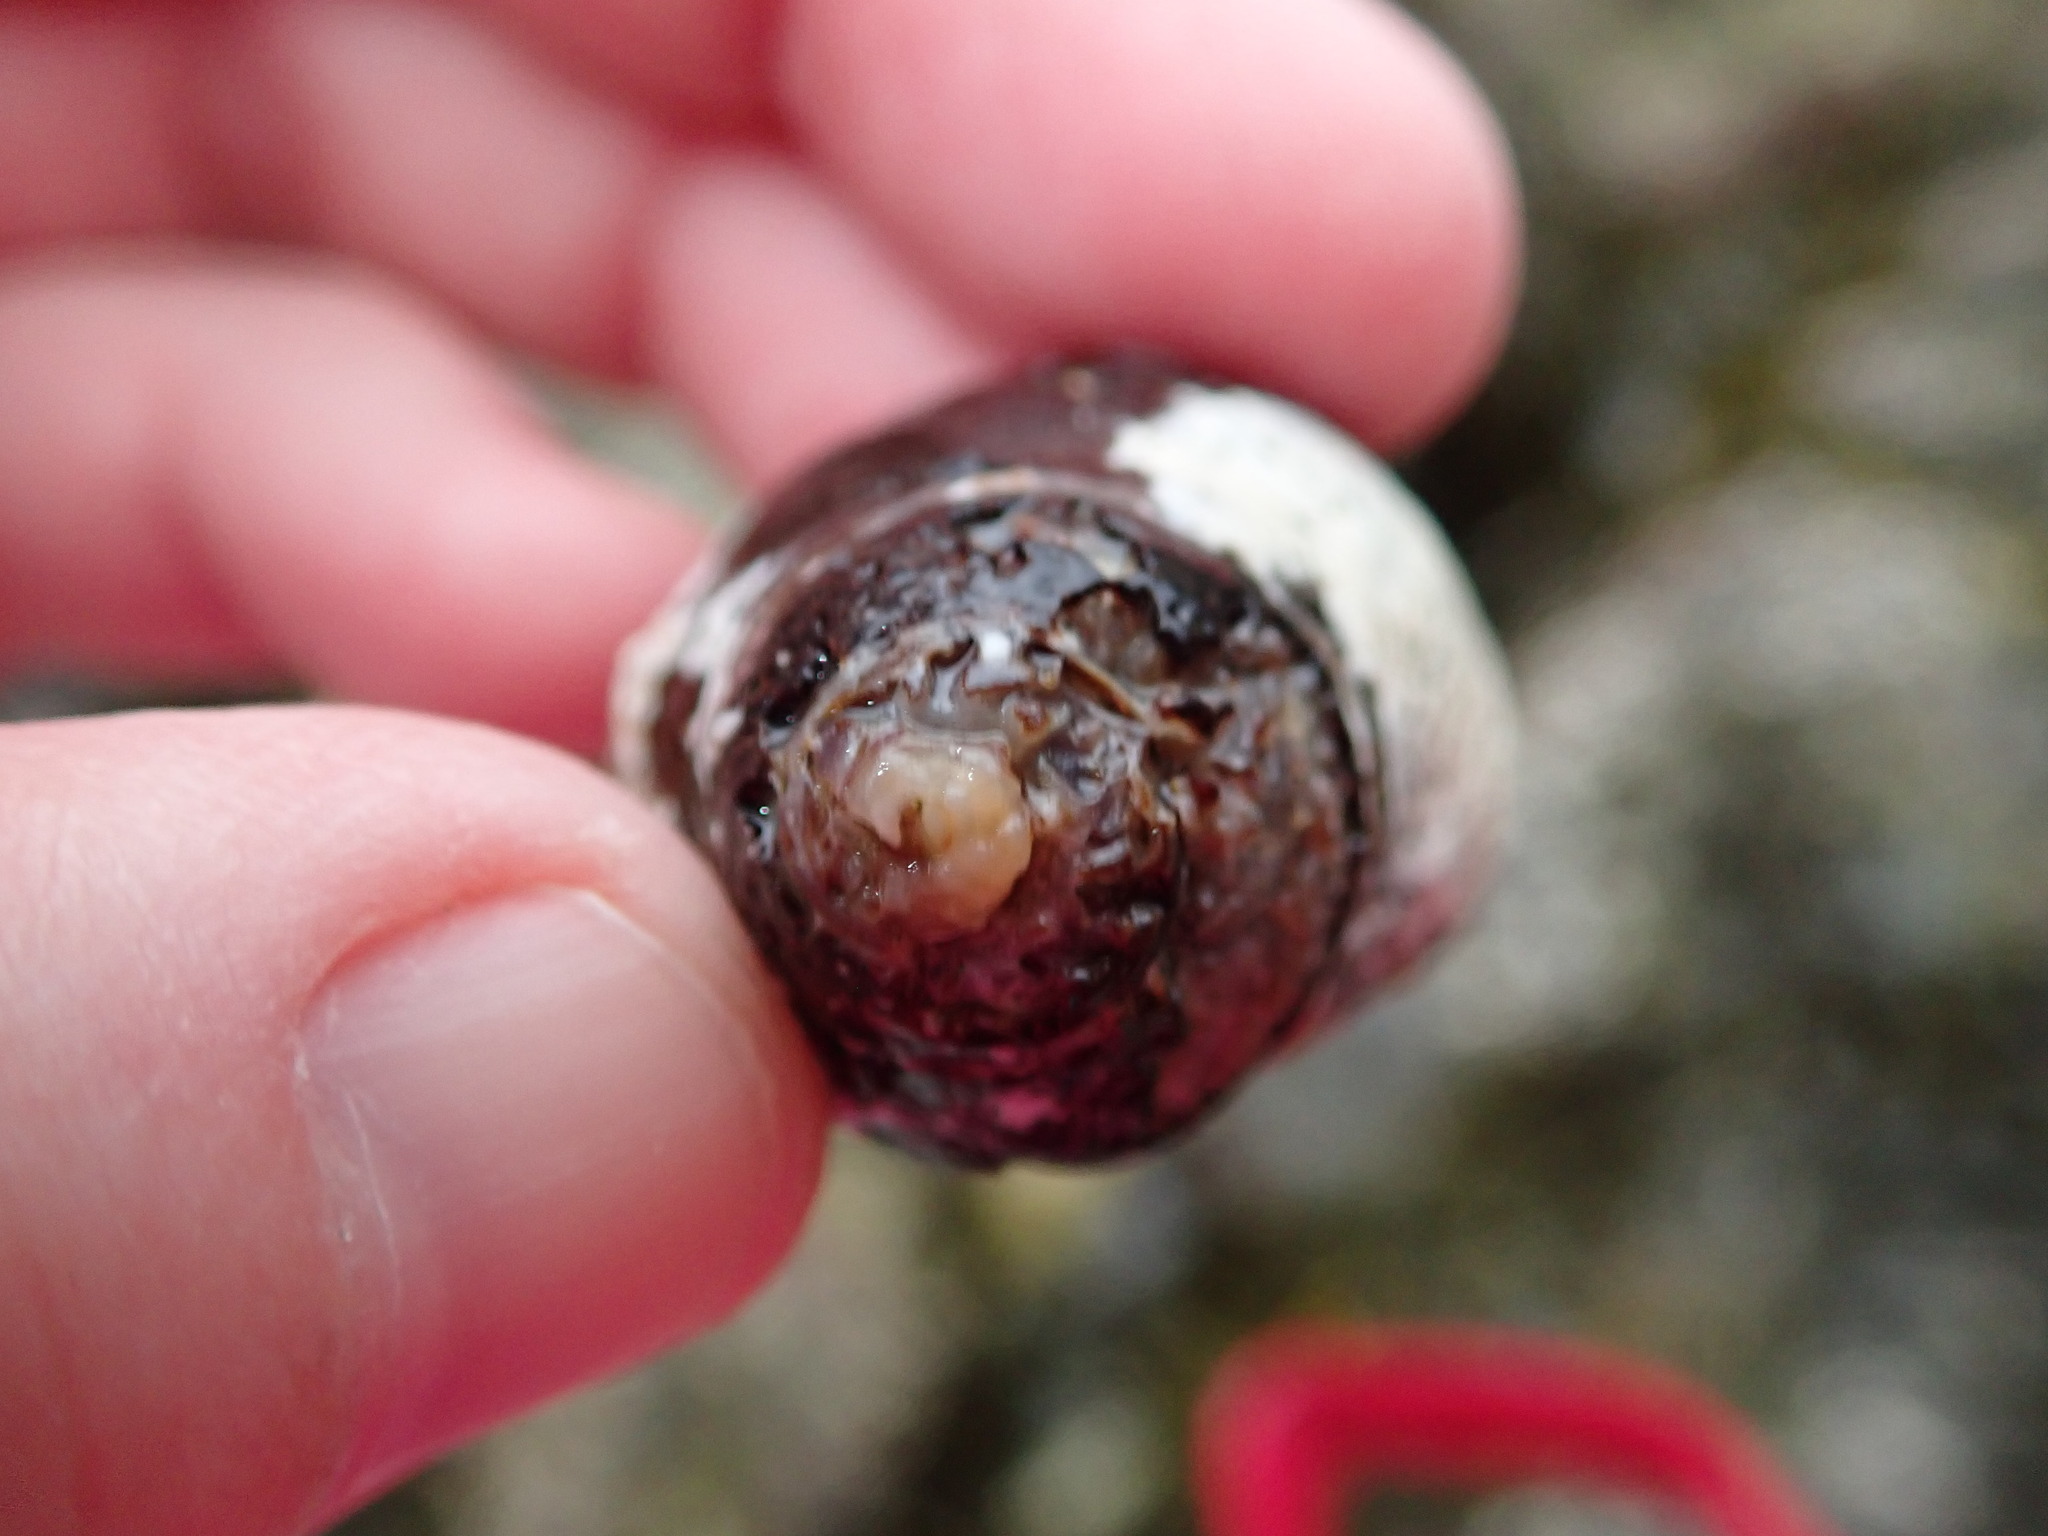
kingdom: Animalia
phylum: Mollusca
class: Gastropoda
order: Littorinimorpha
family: Littorinidae
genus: Littorina
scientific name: Littorina littorea
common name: Common periwinkle
